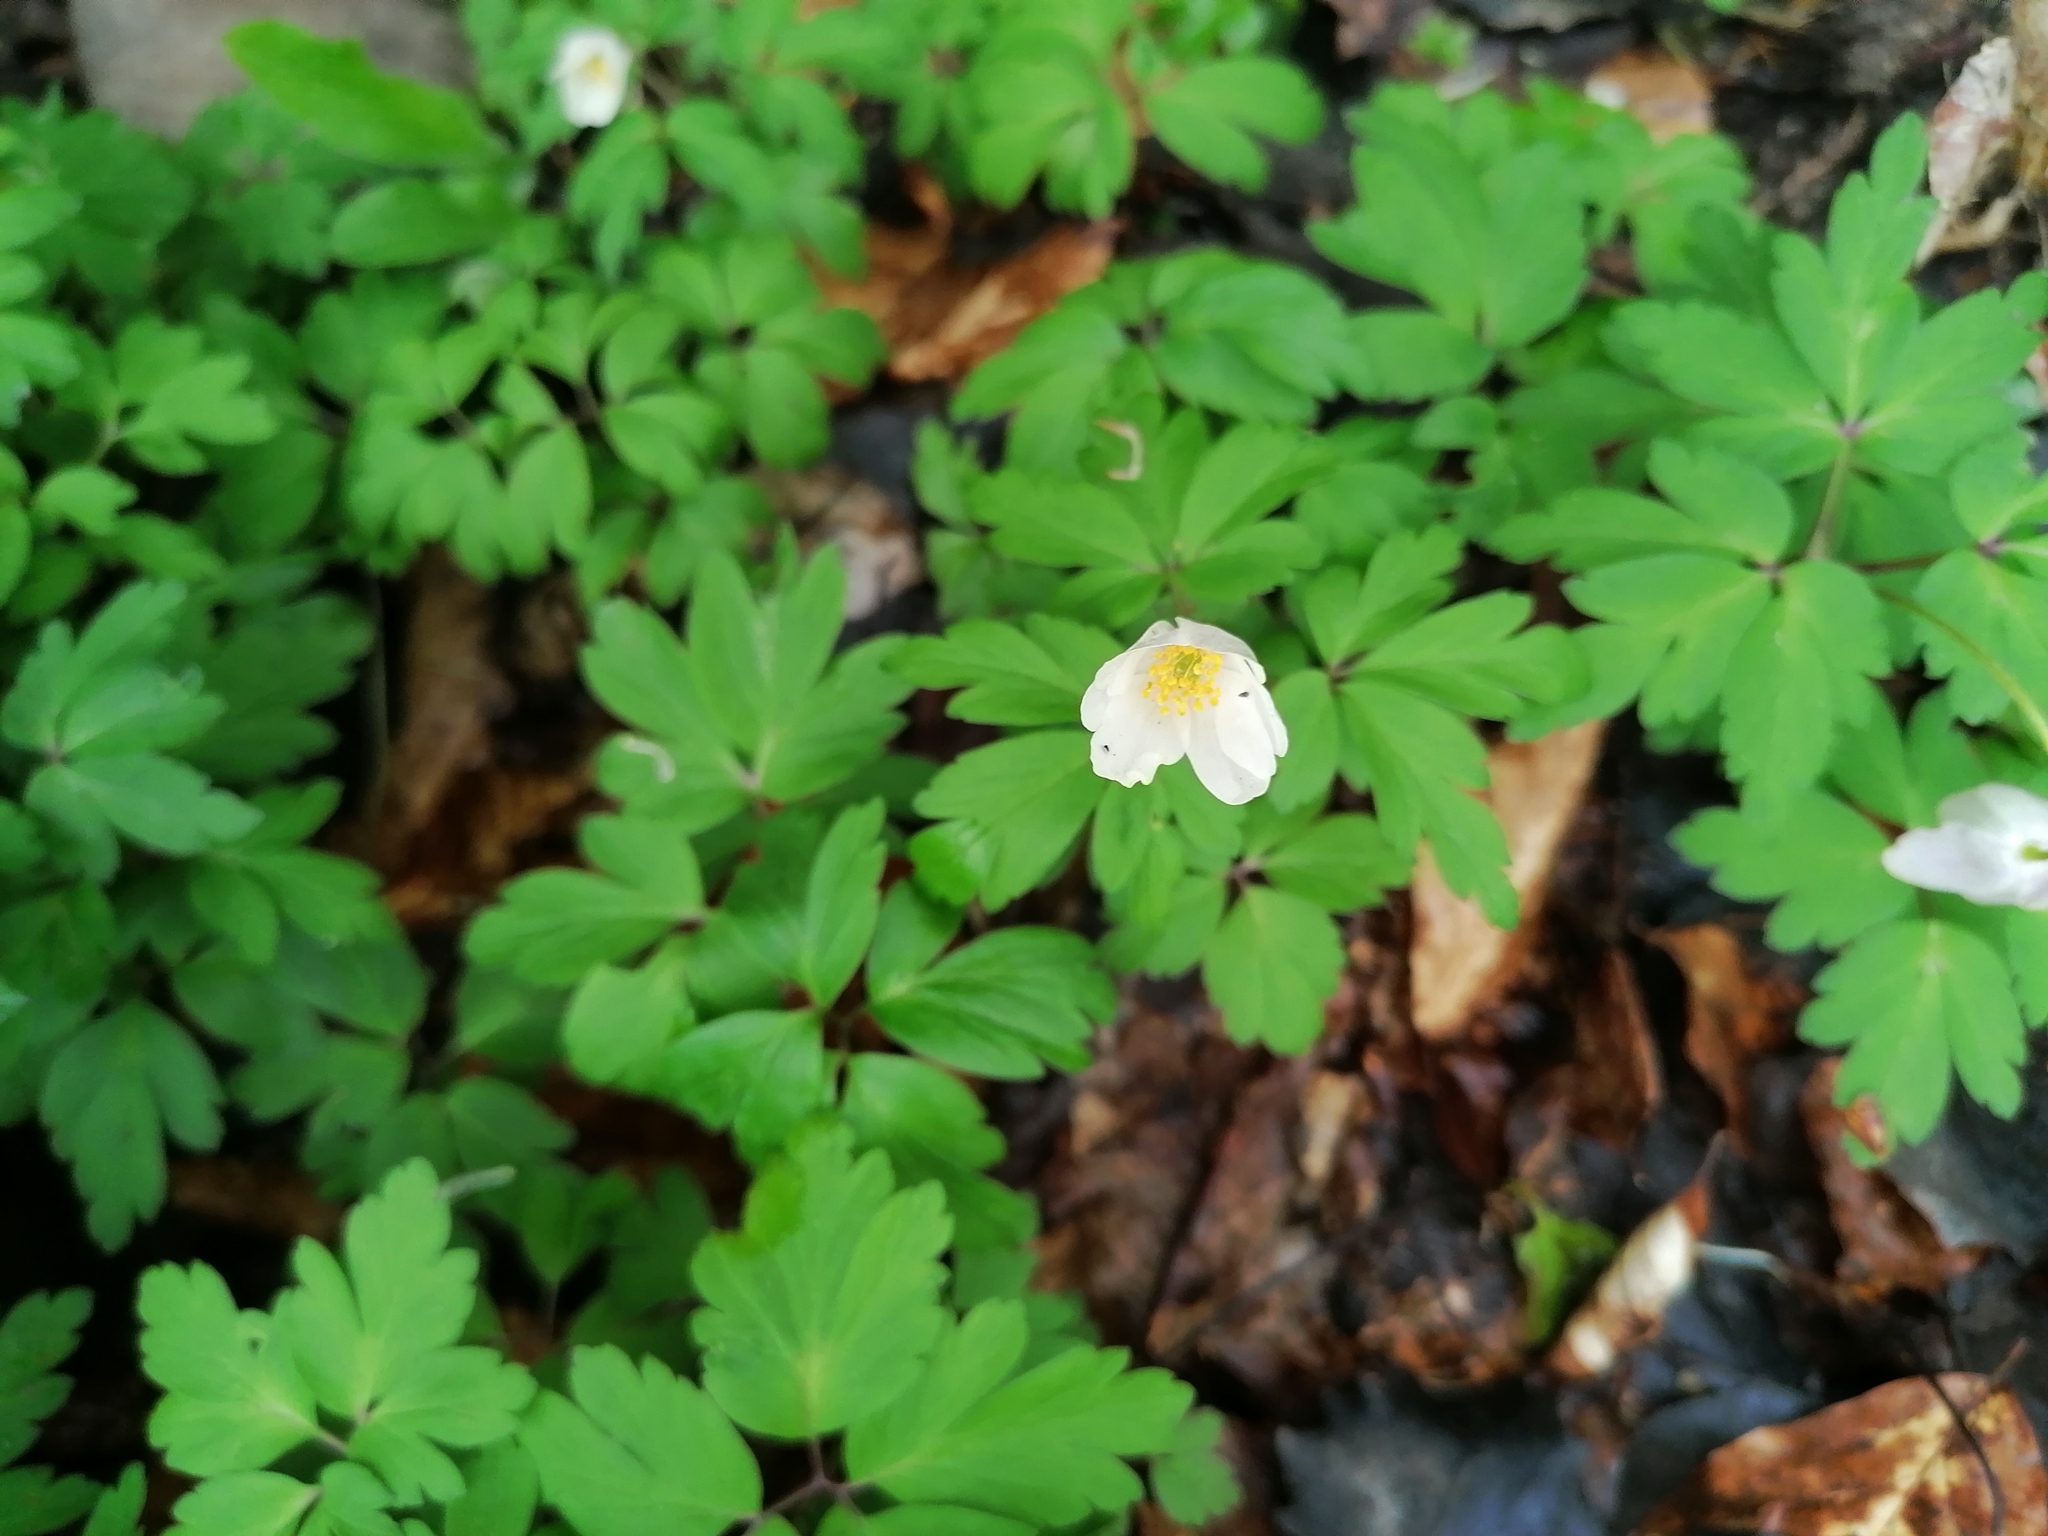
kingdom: Plantae
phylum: Tracheophyta
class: Magnoliopsida
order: Ranunculales
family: Ranunculaceae
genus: Anemone
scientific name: Anemone nemorosa
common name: Wood anemone
